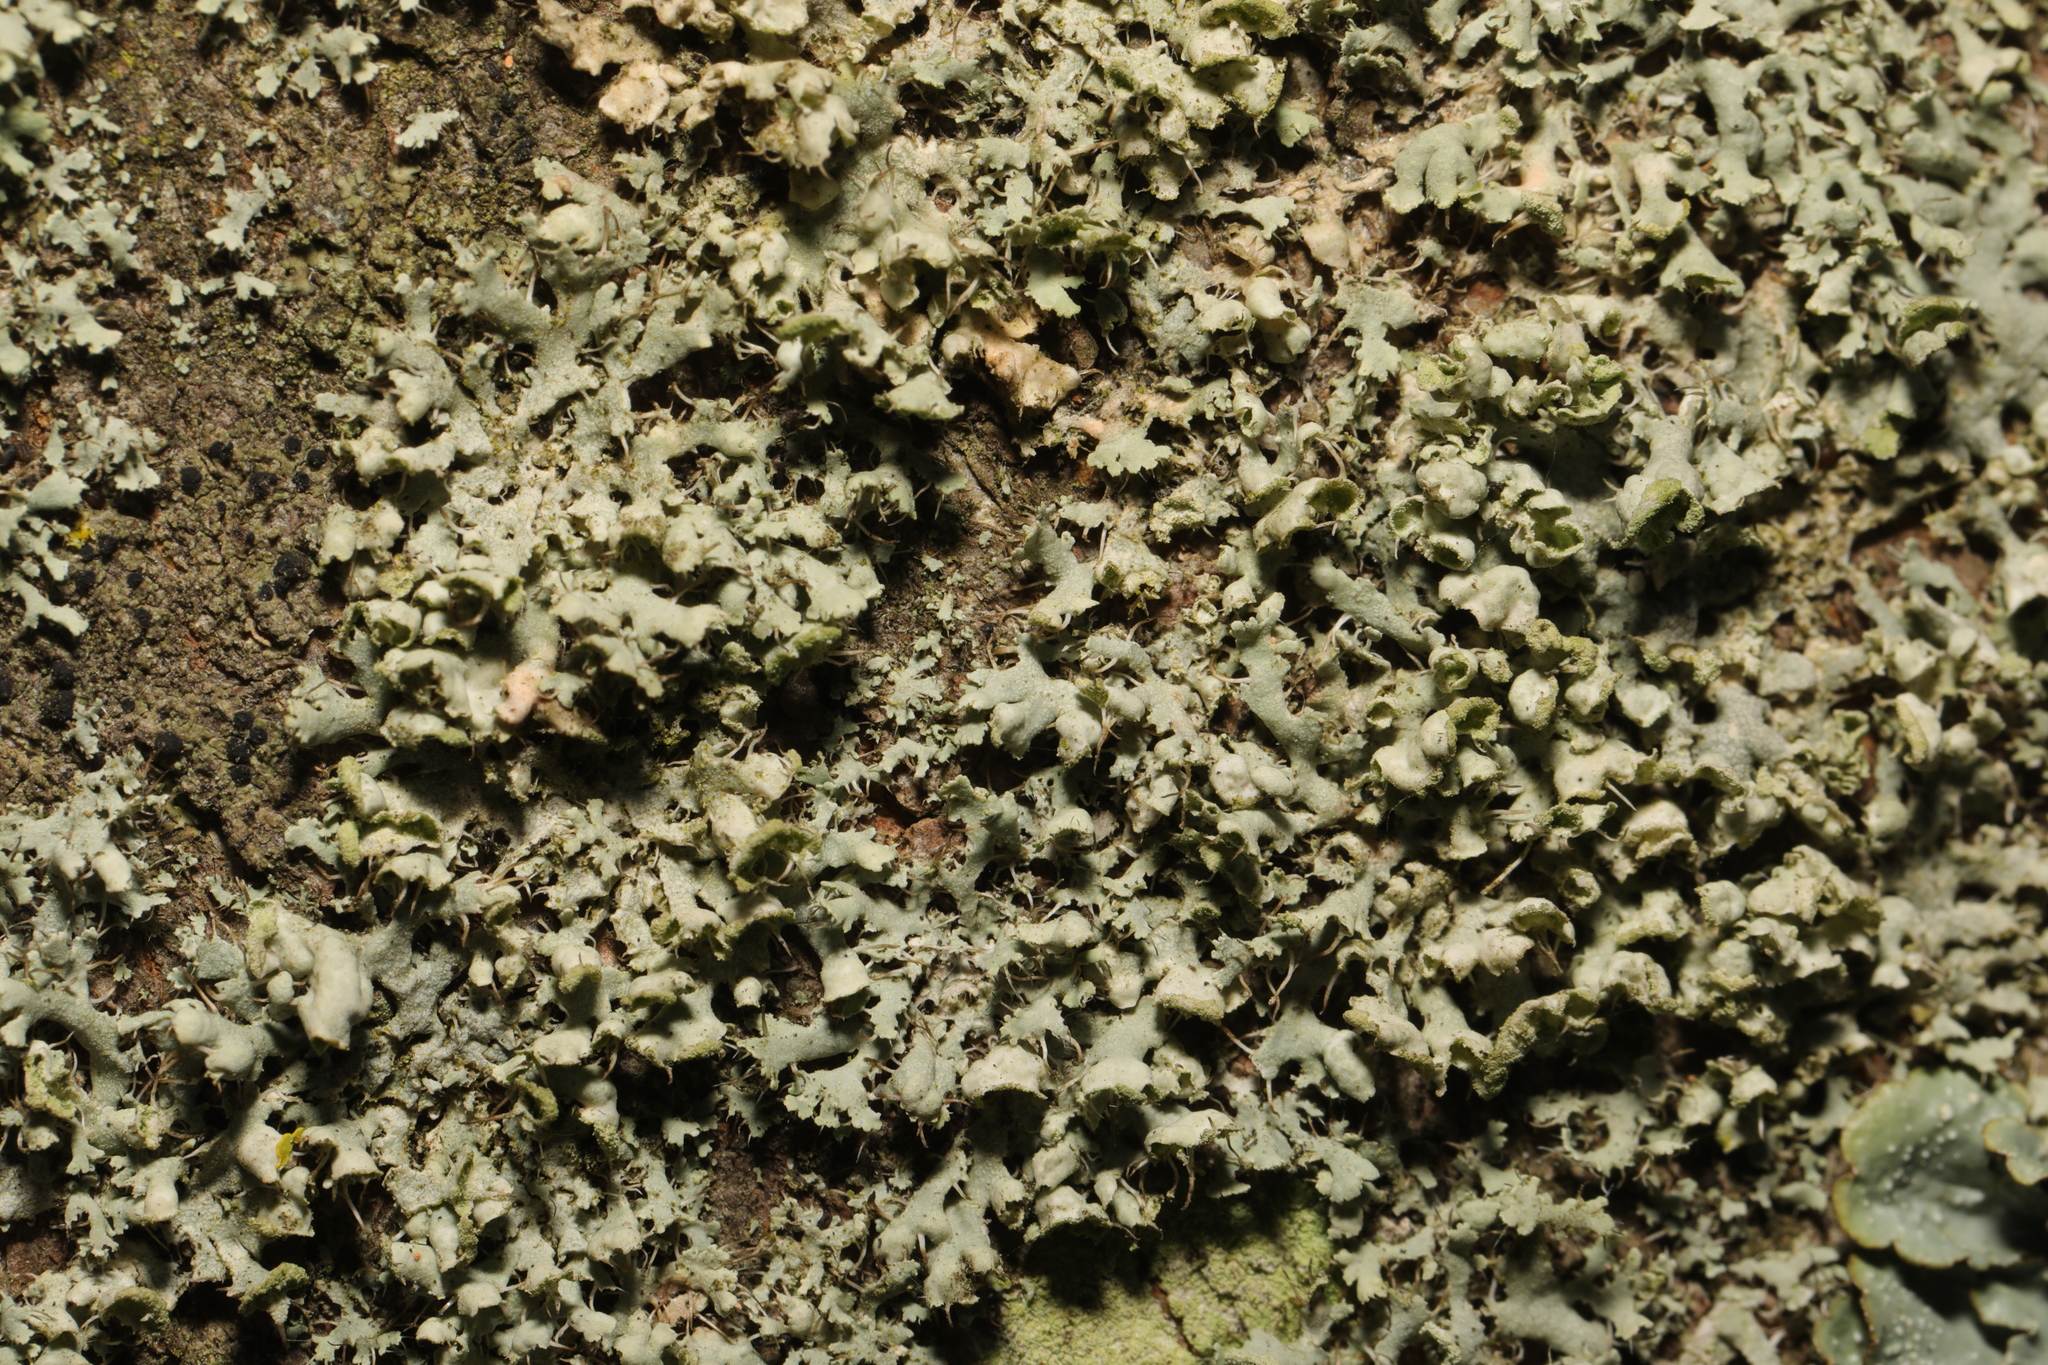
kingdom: Fungi
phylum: Ascomycota
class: Lecanoromycetes
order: Caliciales
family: Physciaceae
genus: Physcia
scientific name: Physcia adscendens
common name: Hooded rosette lichen
